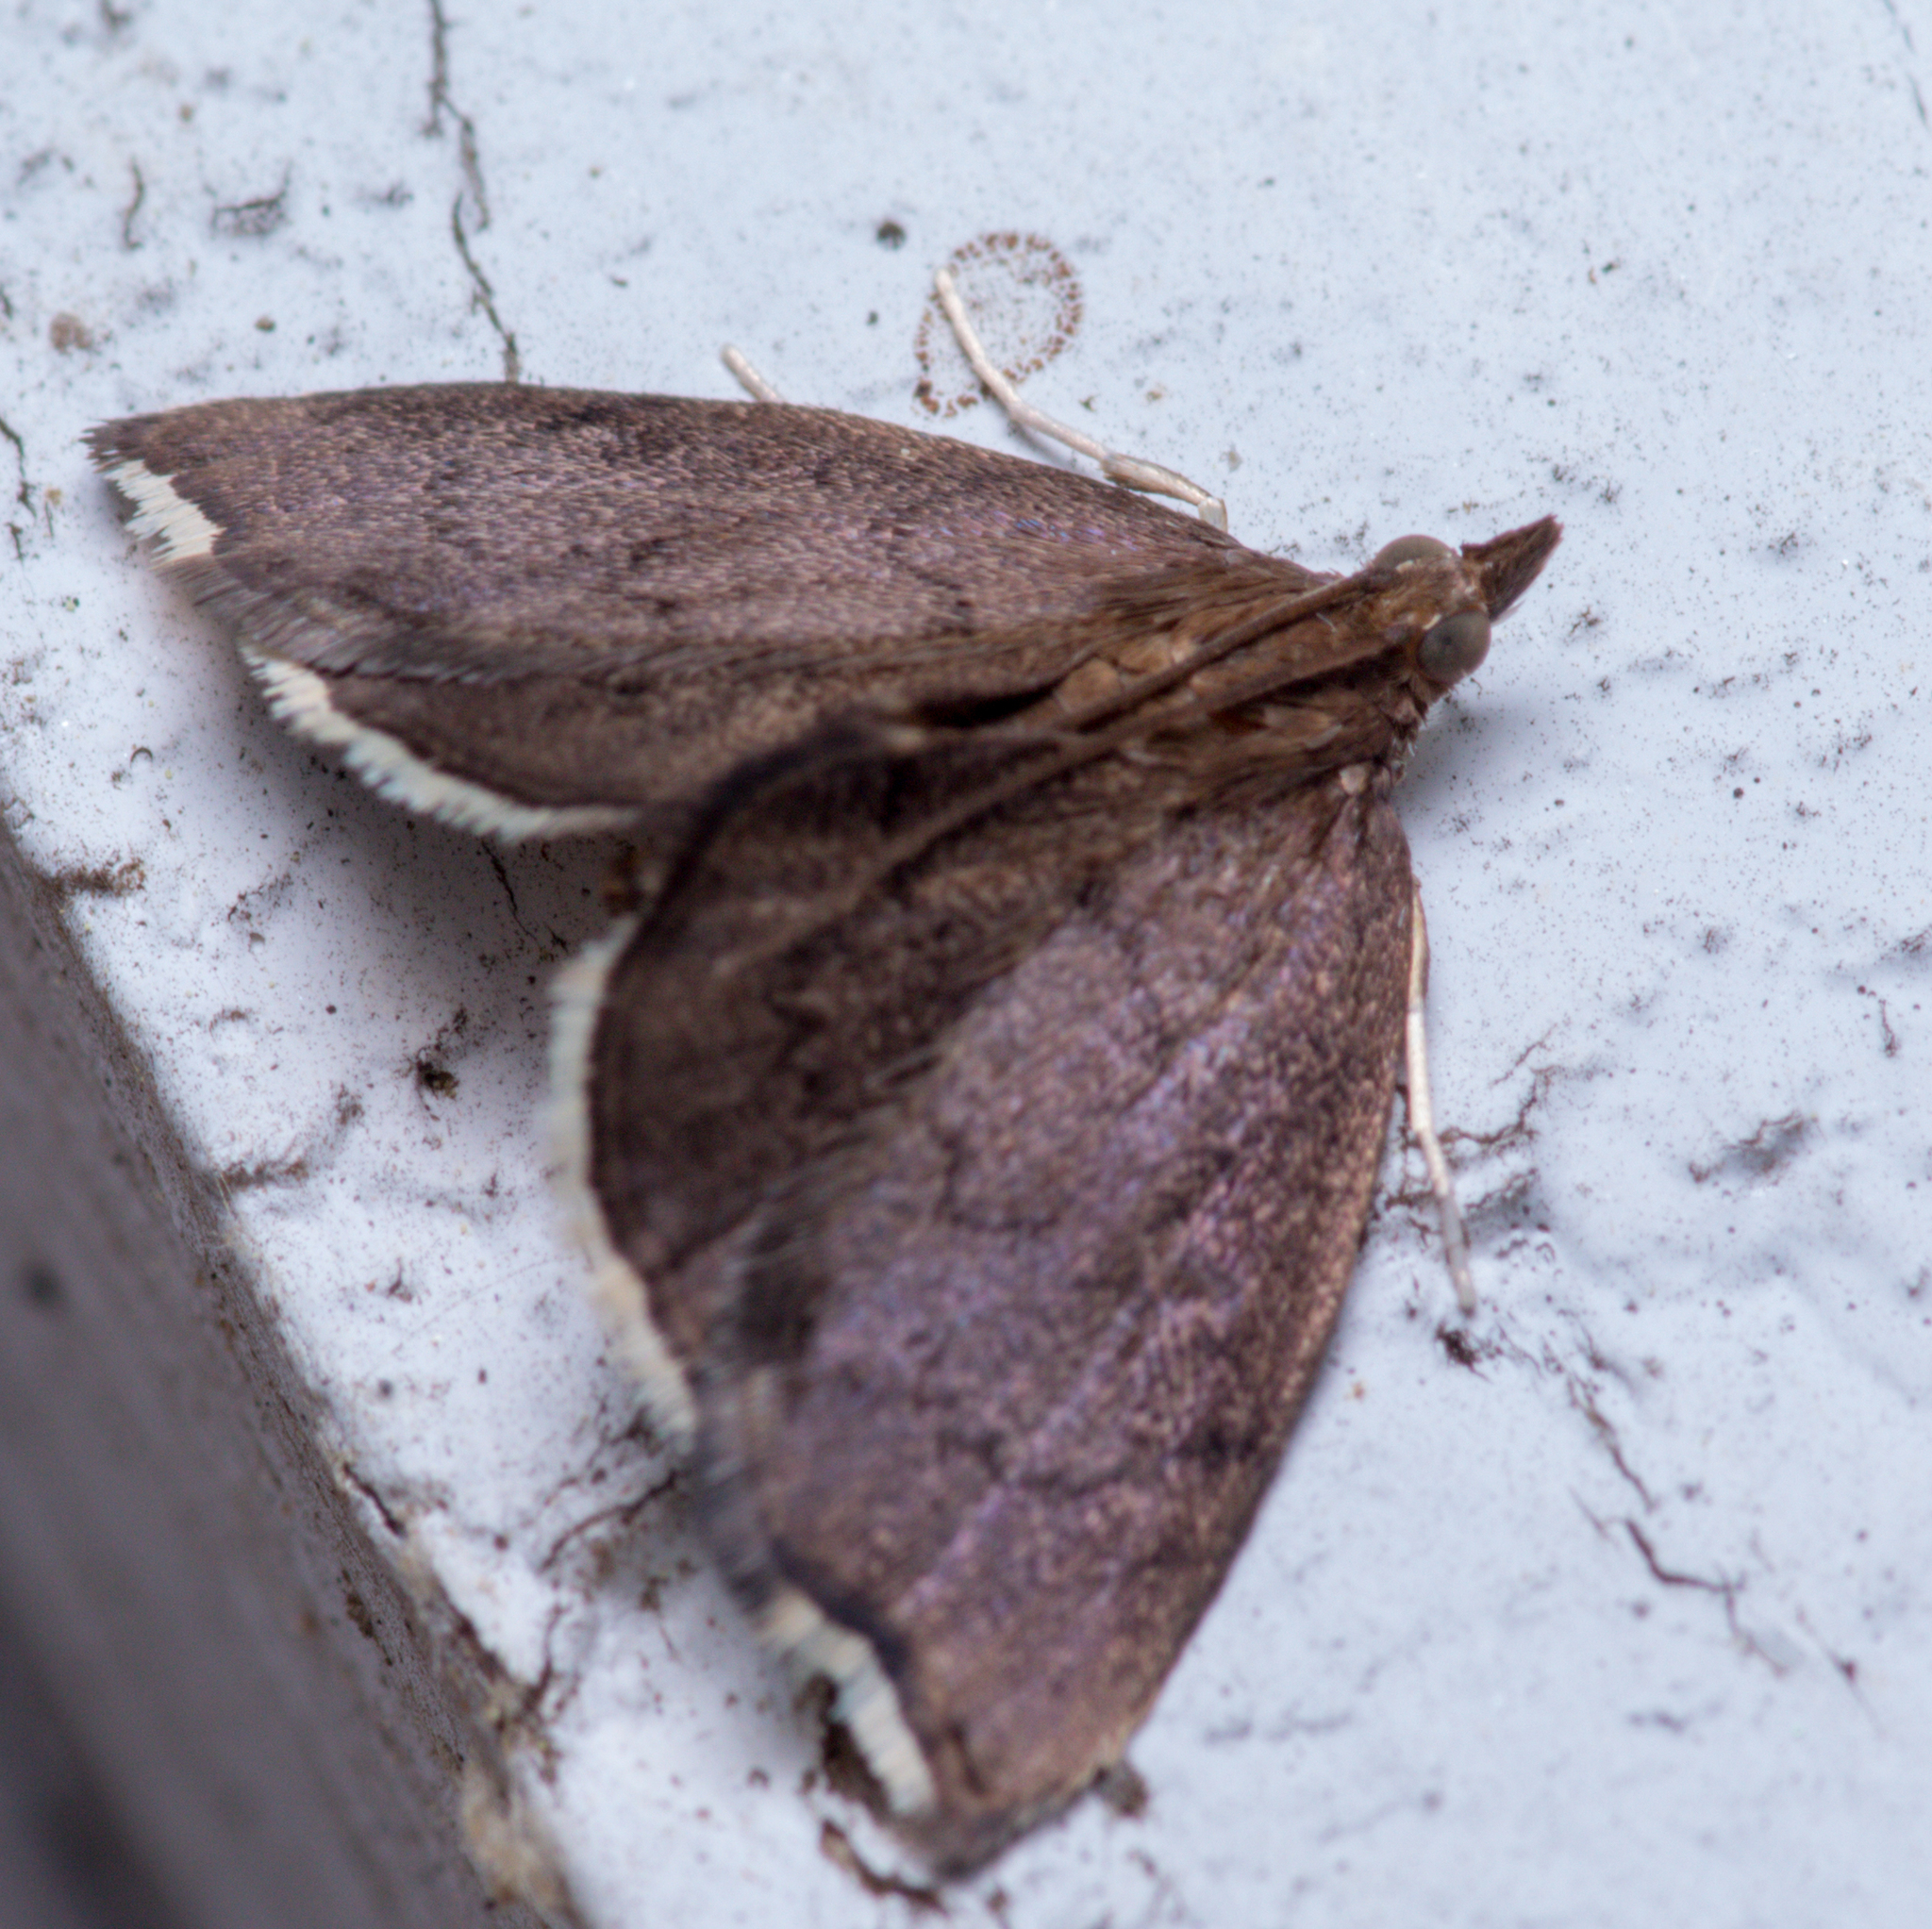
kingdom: Animalia
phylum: Arthropoda
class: Insecta
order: Lepidoptera
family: Crambidae
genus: Perispasta
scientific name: Perispasta caeculalis
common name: Titian peale's moth
